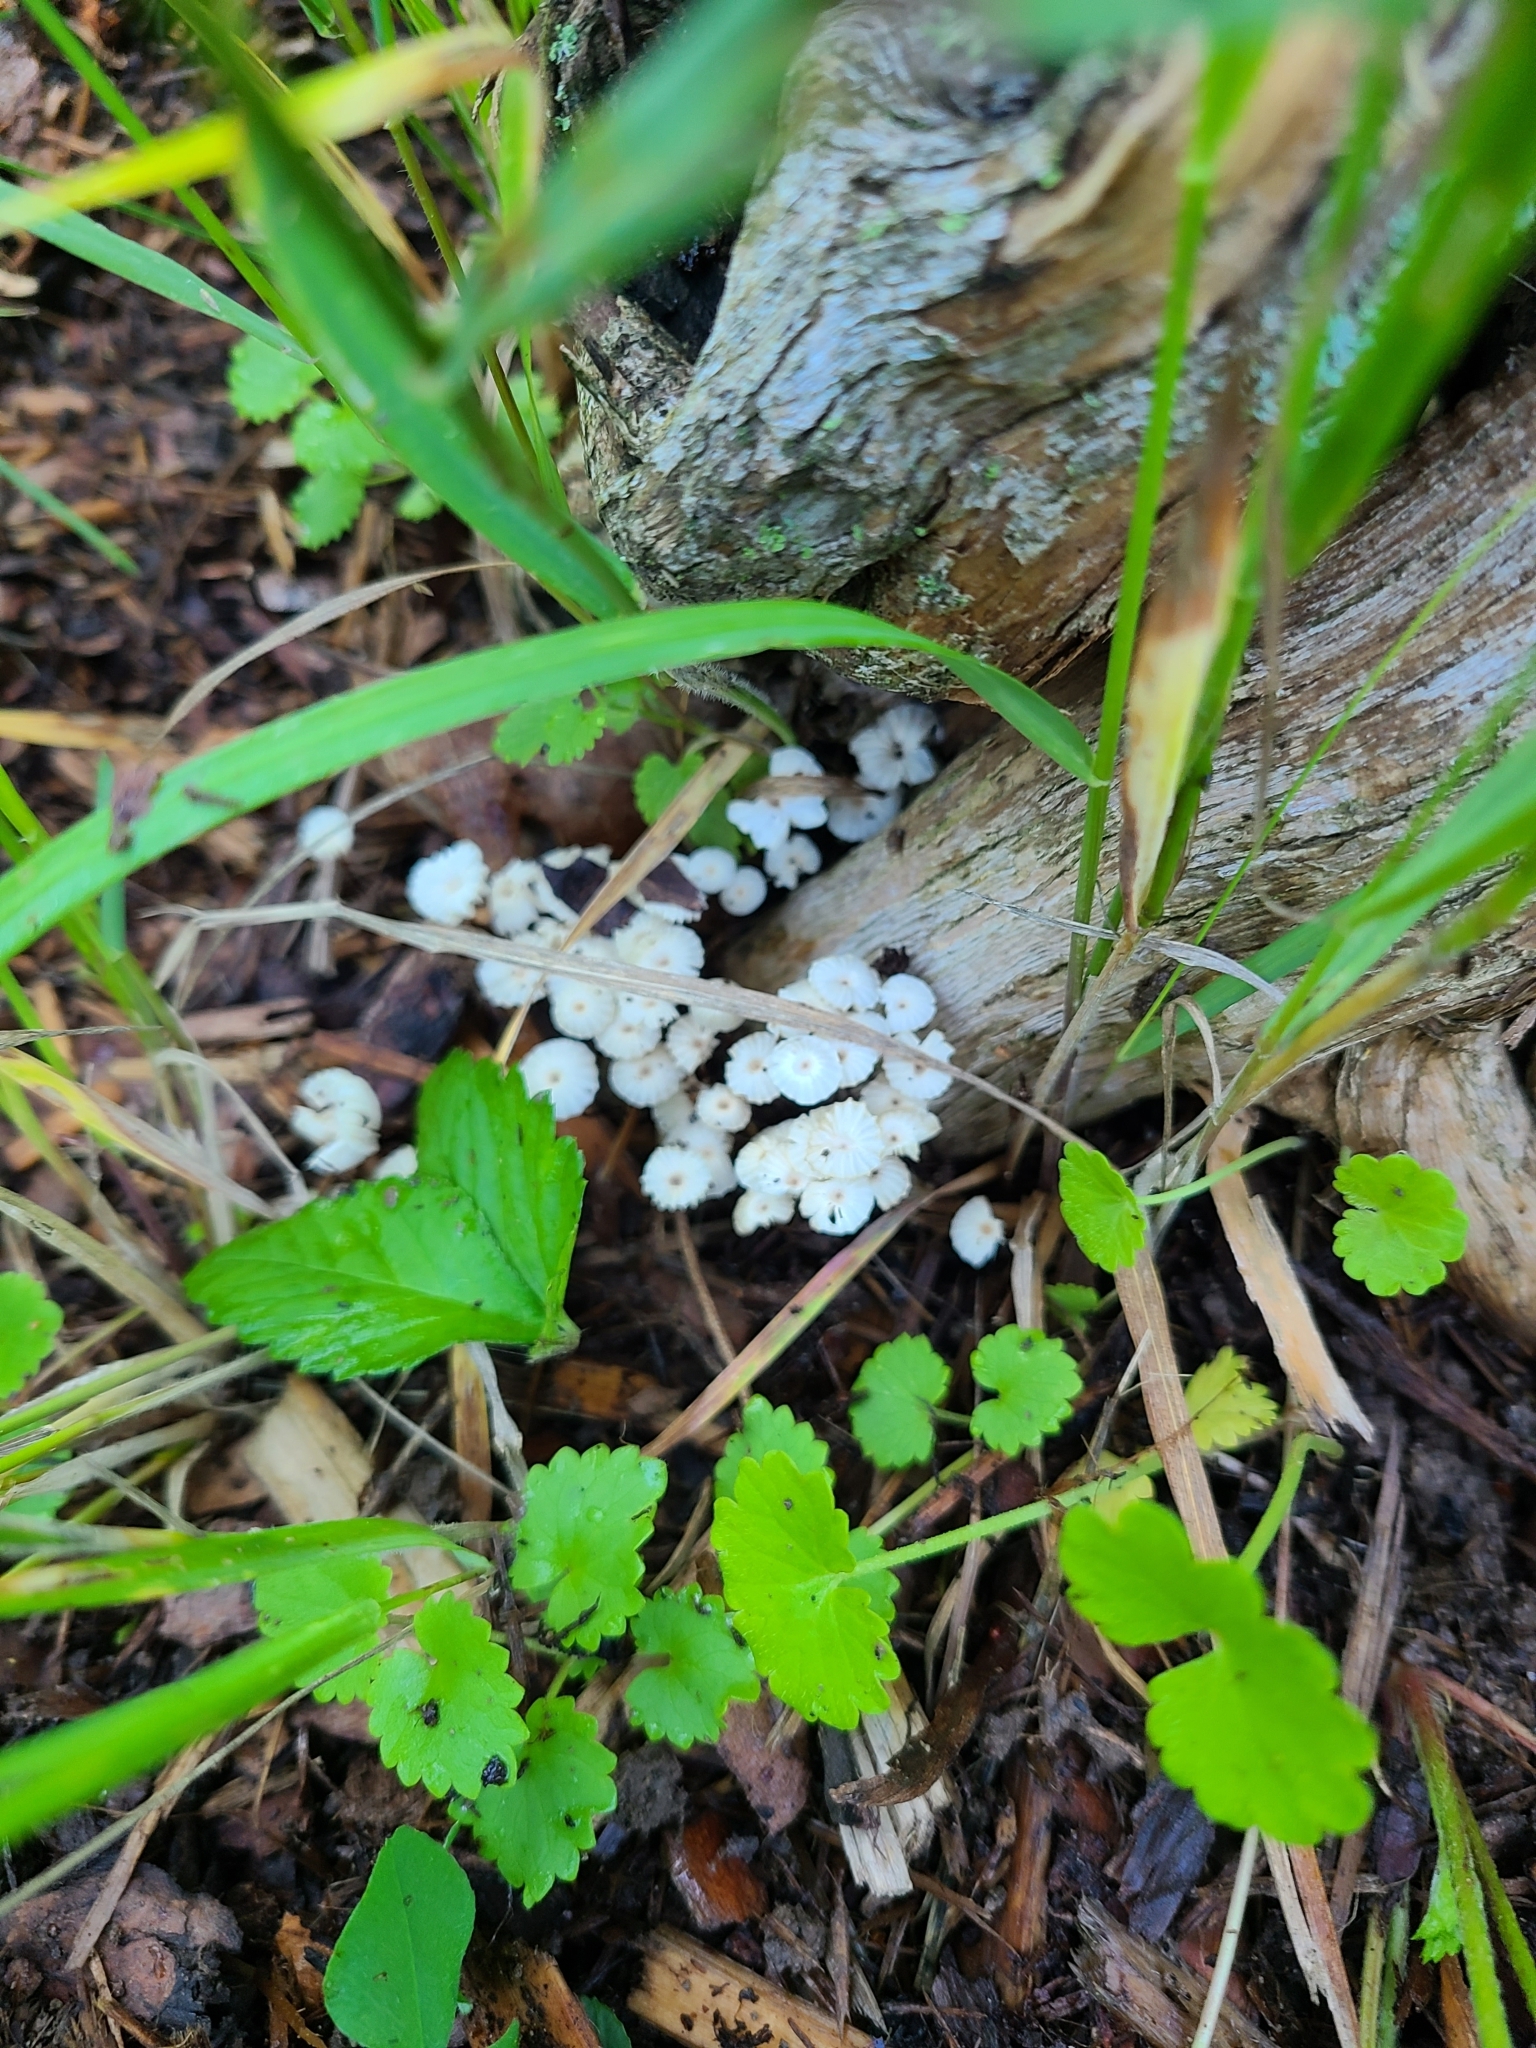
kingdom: Fungi
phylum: Basidiomycota
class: Agaricomycetes
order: Agaricales
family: Marasmiaceae
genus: Marasmius
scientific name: Marasmius rotula
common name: Collared parachute
